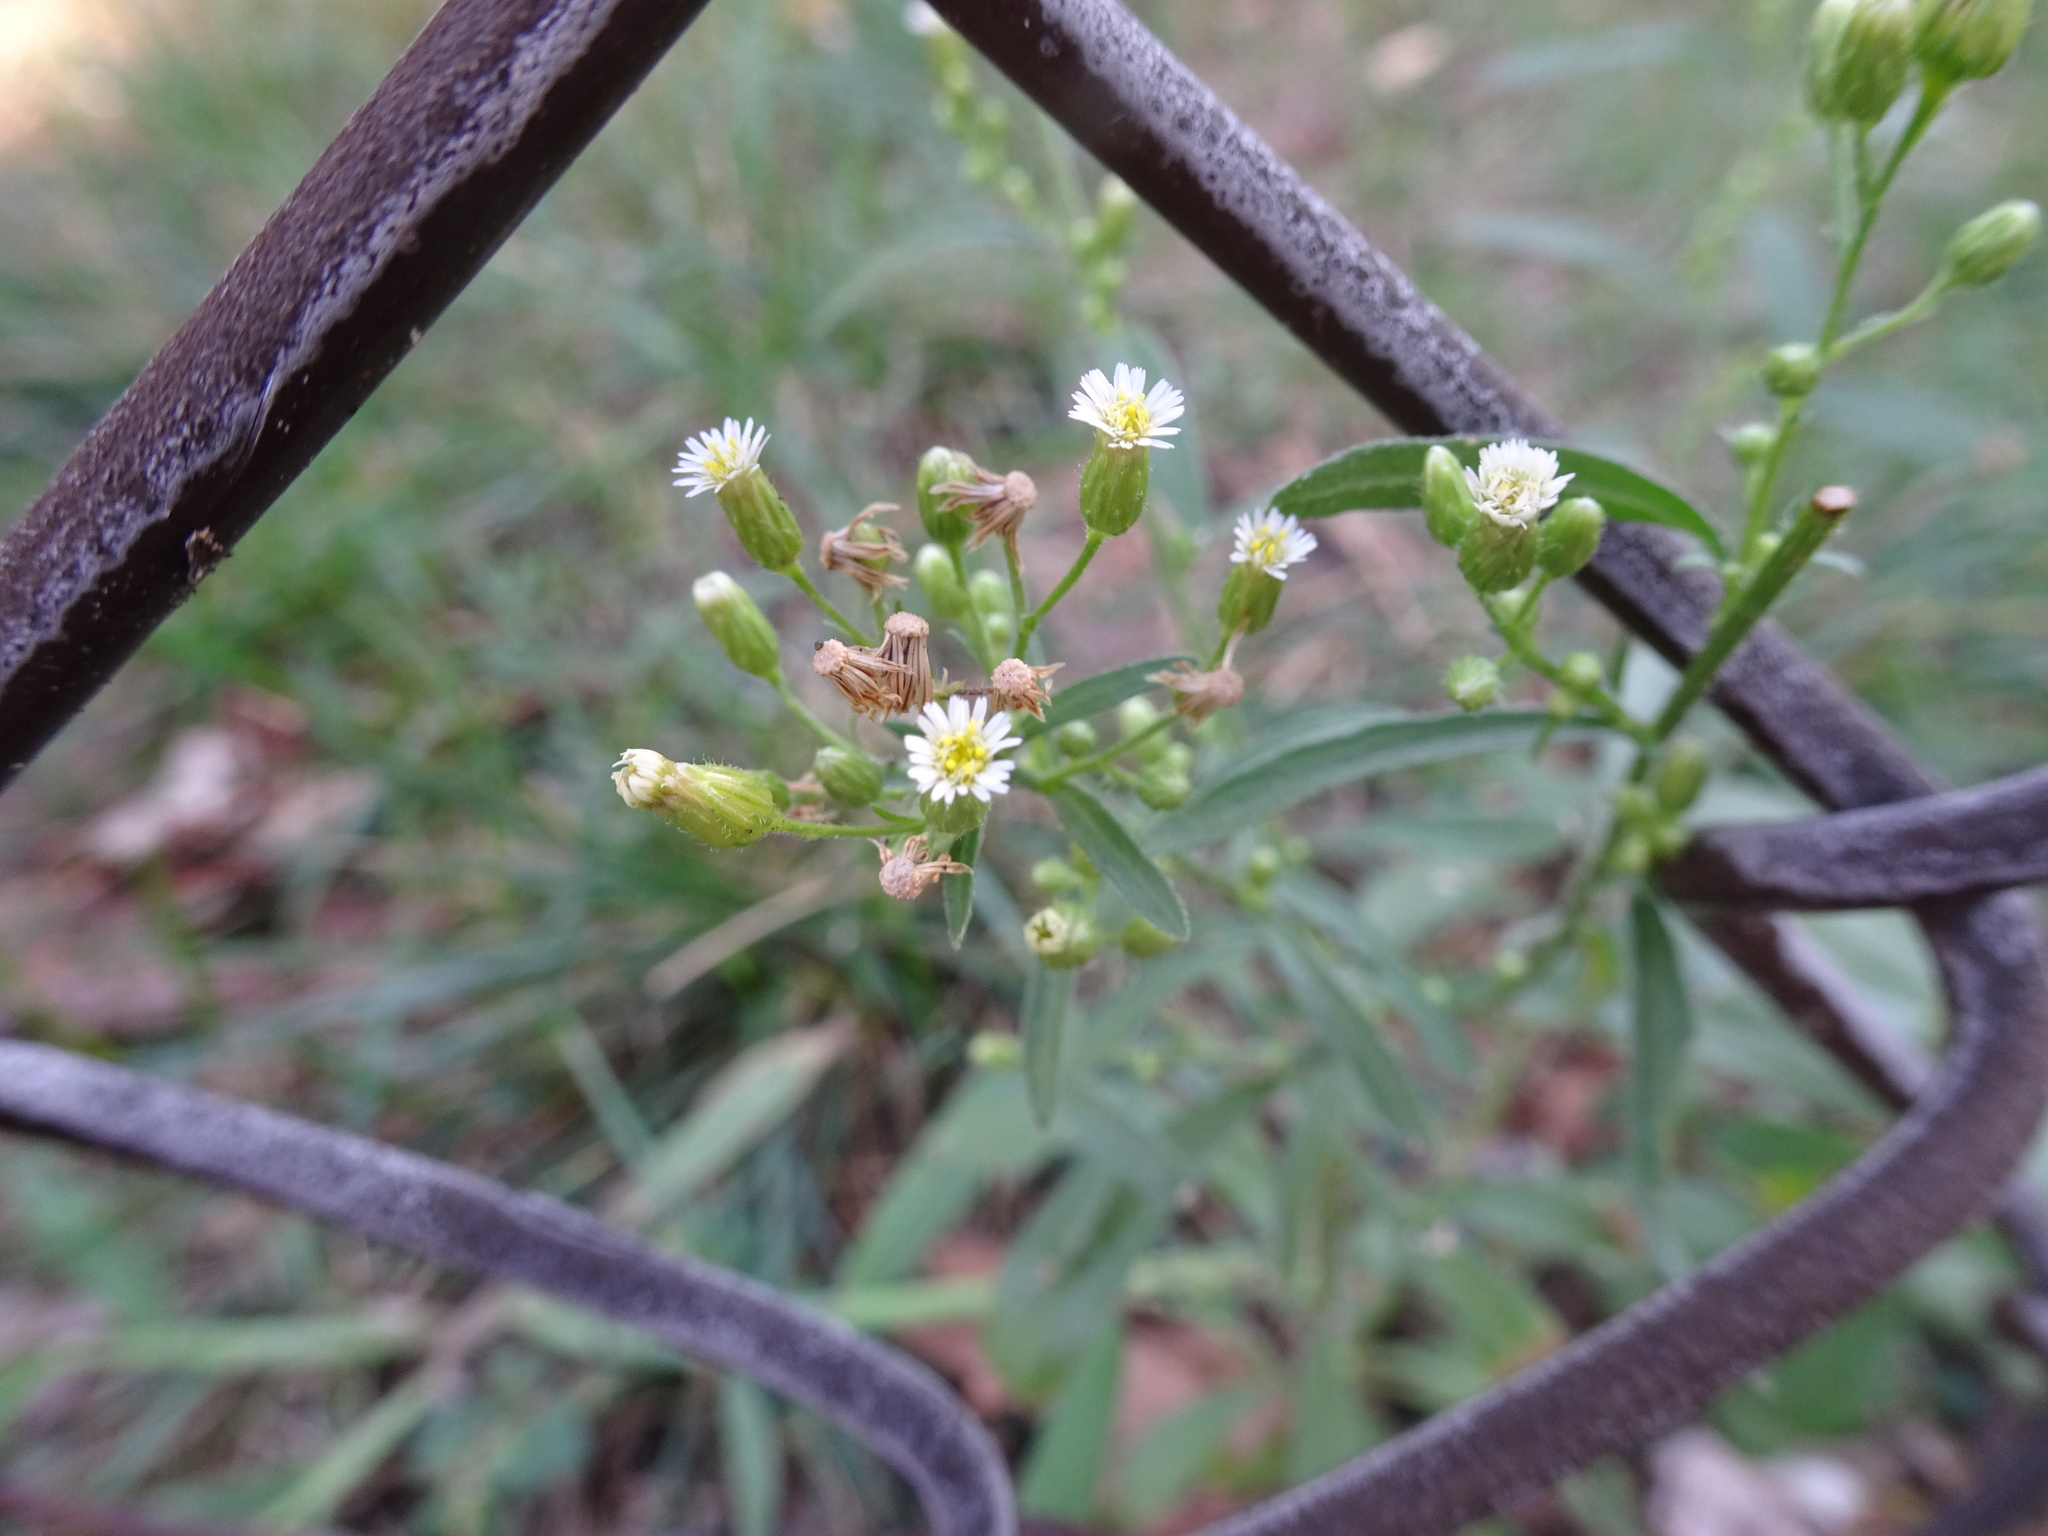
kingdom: Plantae
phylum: Tracheophyta
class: Magnoliopsida
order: Asterales
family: Asteraceae
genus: Erigeron
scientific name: Erigeron canadensis
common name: Canadian fleabane
